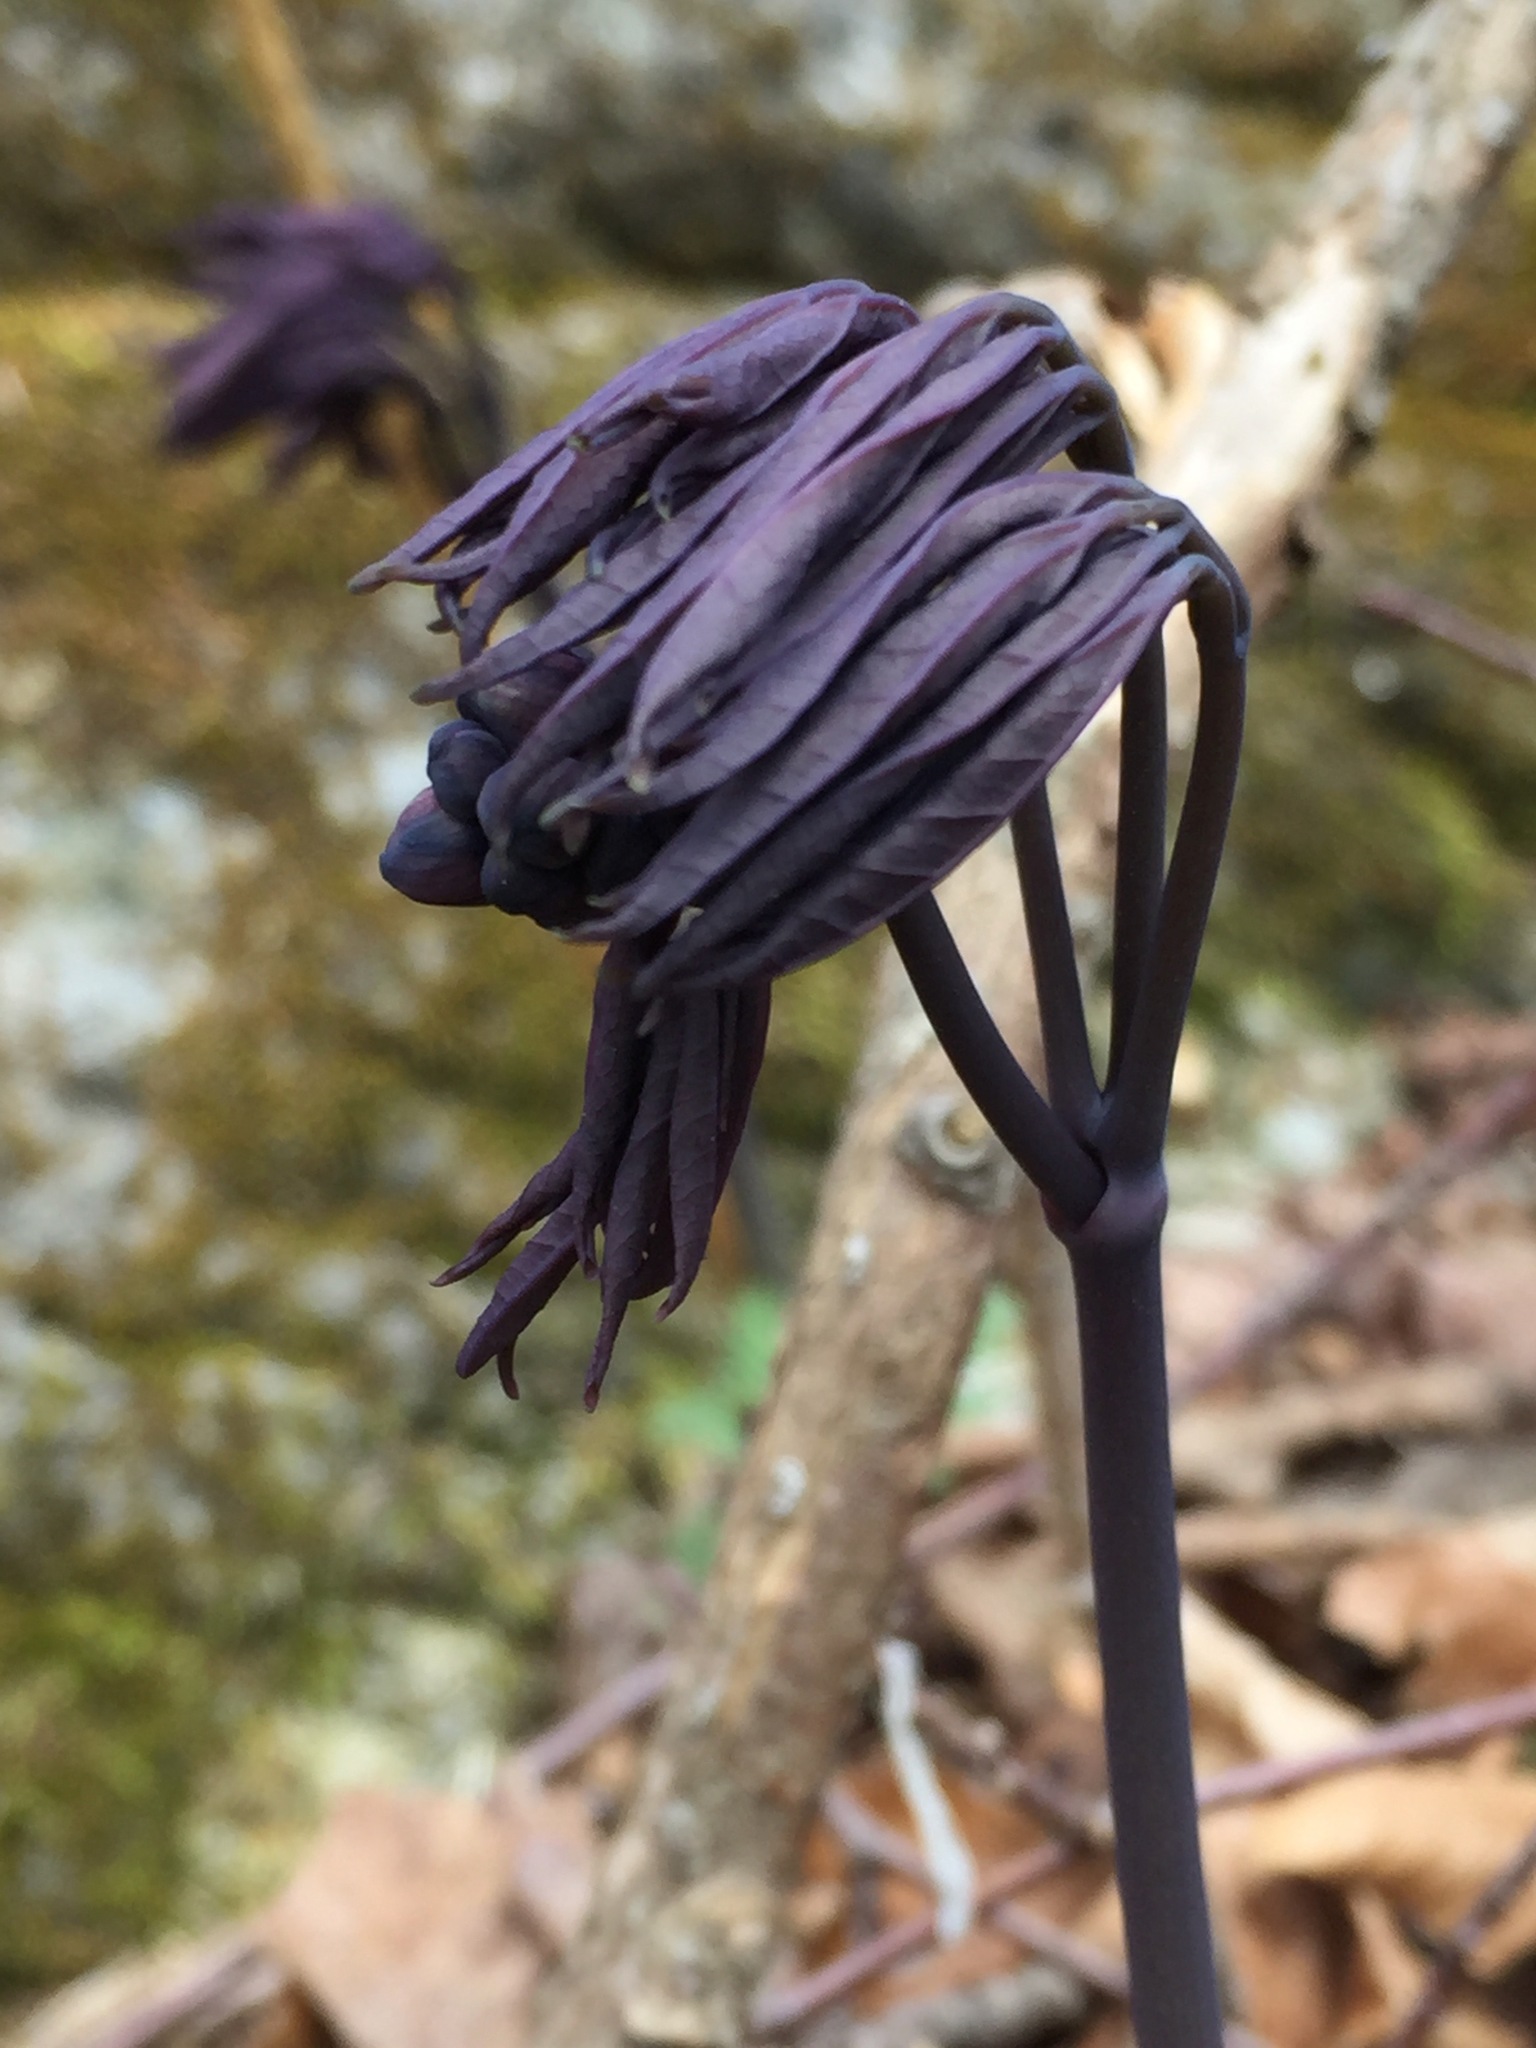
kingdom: Plantae
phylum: Tracheophyta
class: Magnoliopsida
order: Ranunculales
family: Berberidaceae
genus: Caulophyllum
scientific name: Caulophyllum giganteum
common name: Blue cohosh
